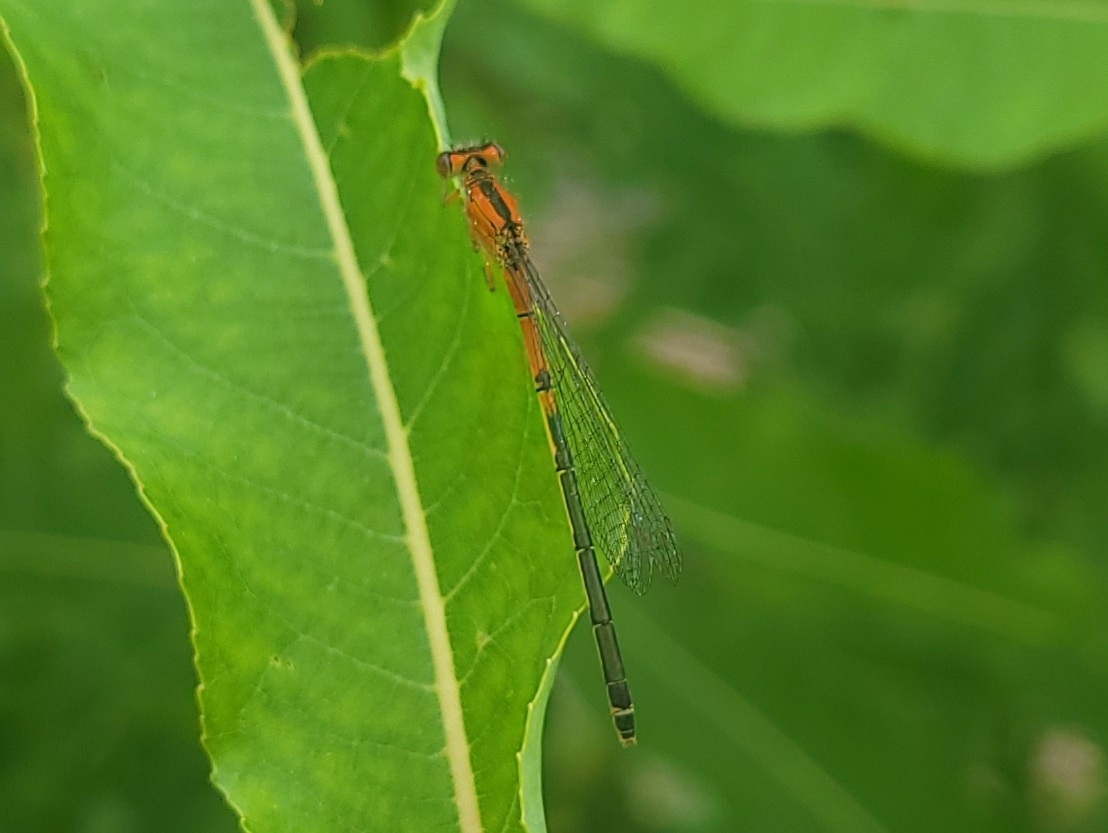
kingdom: Animalia
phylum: Arthropoda
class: Insecta
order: Odonata
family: Coenagrionidae
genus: Ischnura
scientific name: Ischnura verticalis
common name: Eastern forktail
